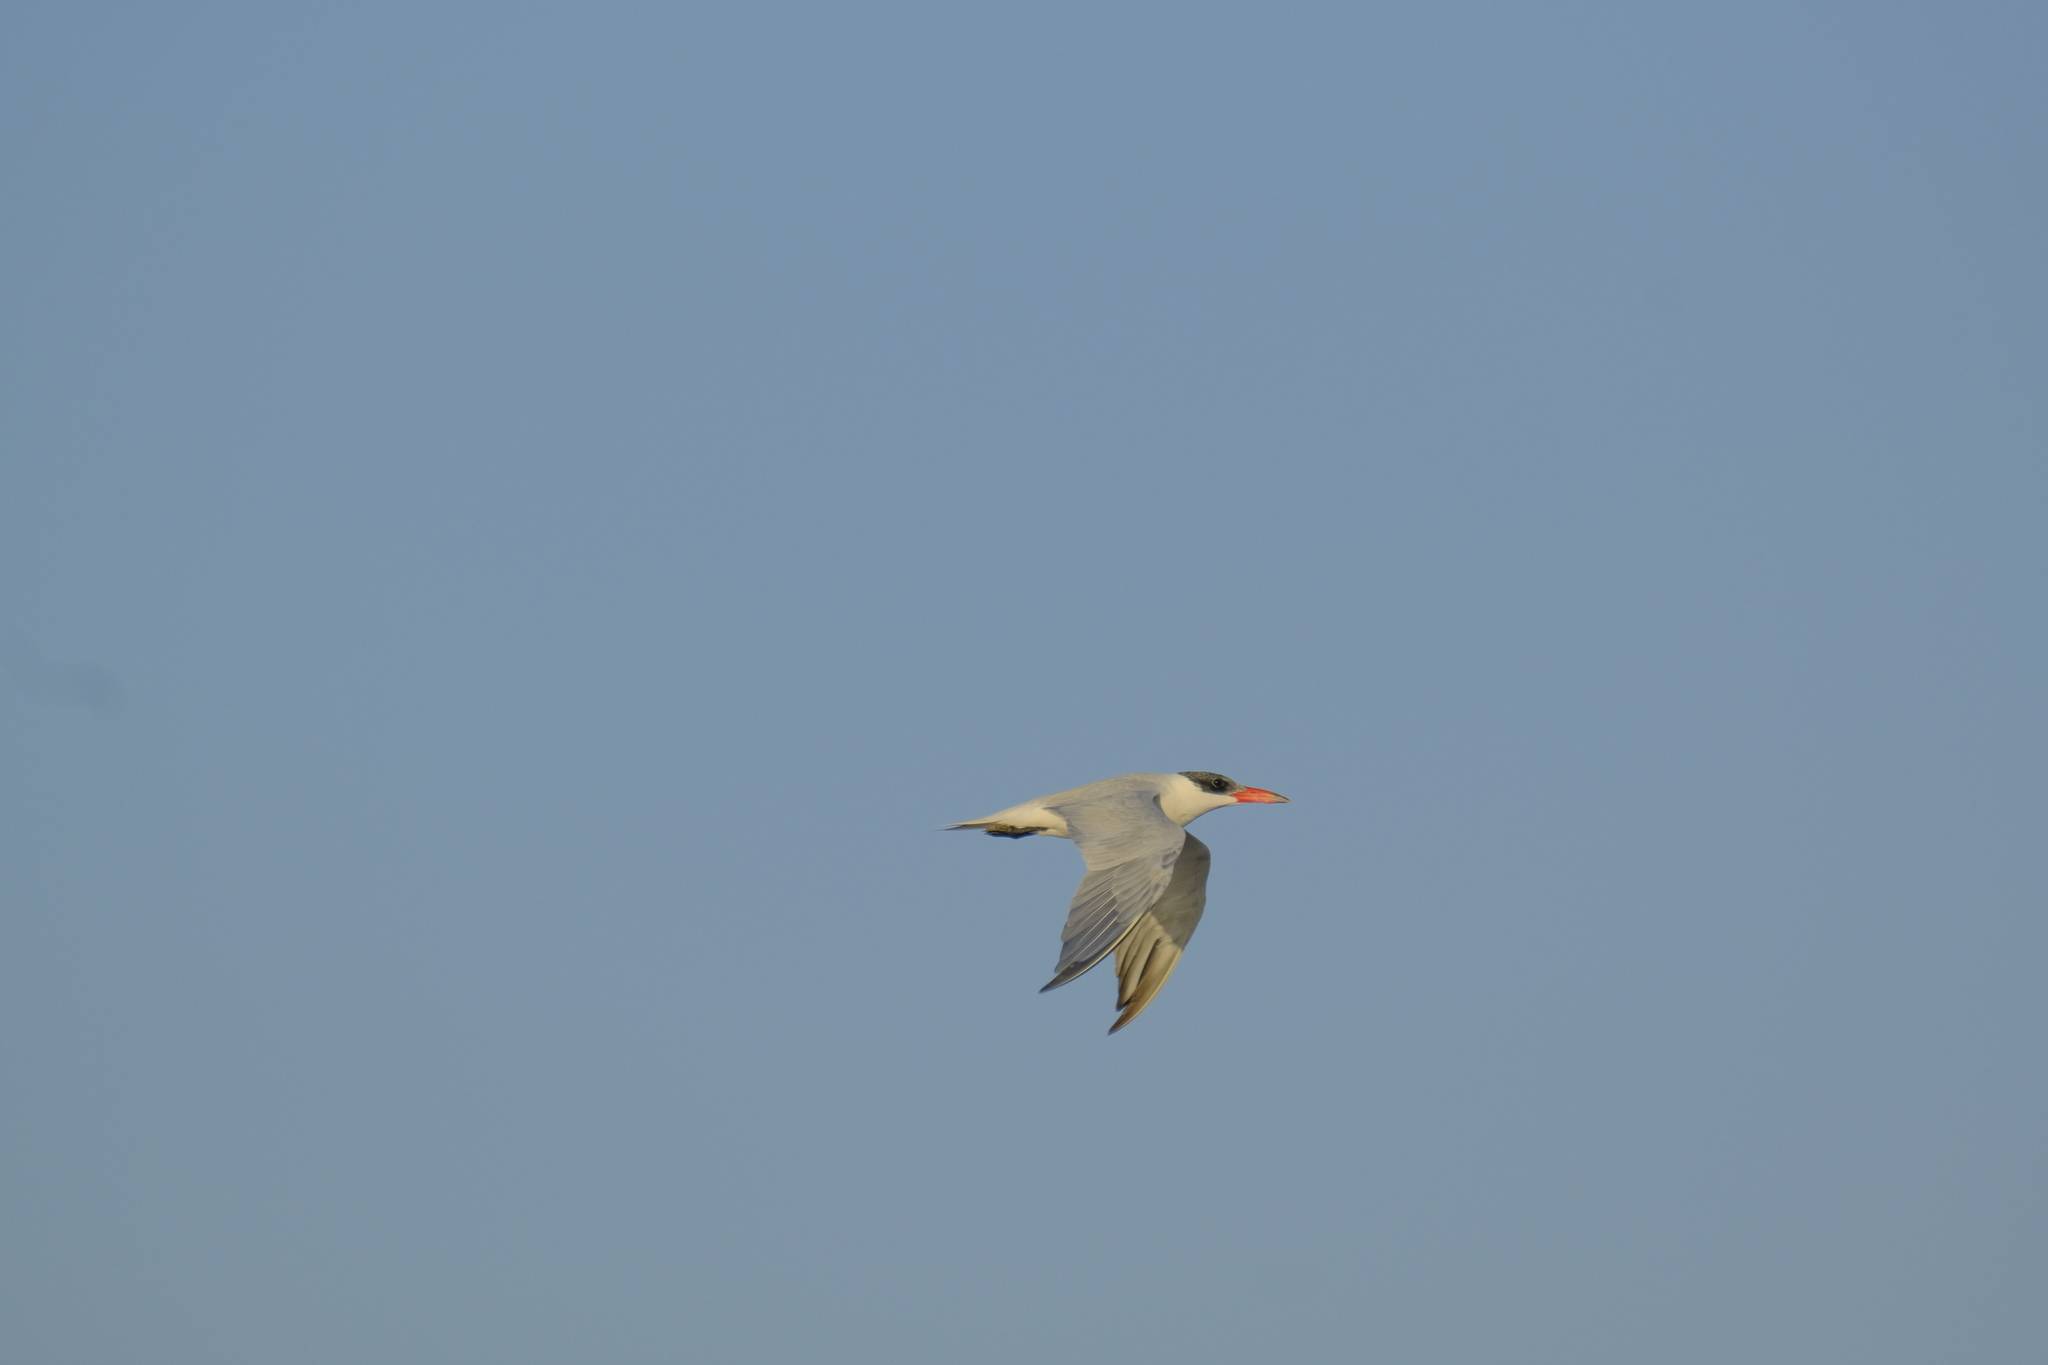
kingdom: Animalia
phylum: Chordata
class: Aves
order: Charadriiformes
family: Laridae
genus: Hydroprogne
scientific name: Hydroprogne caspia
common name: Caspian tern
